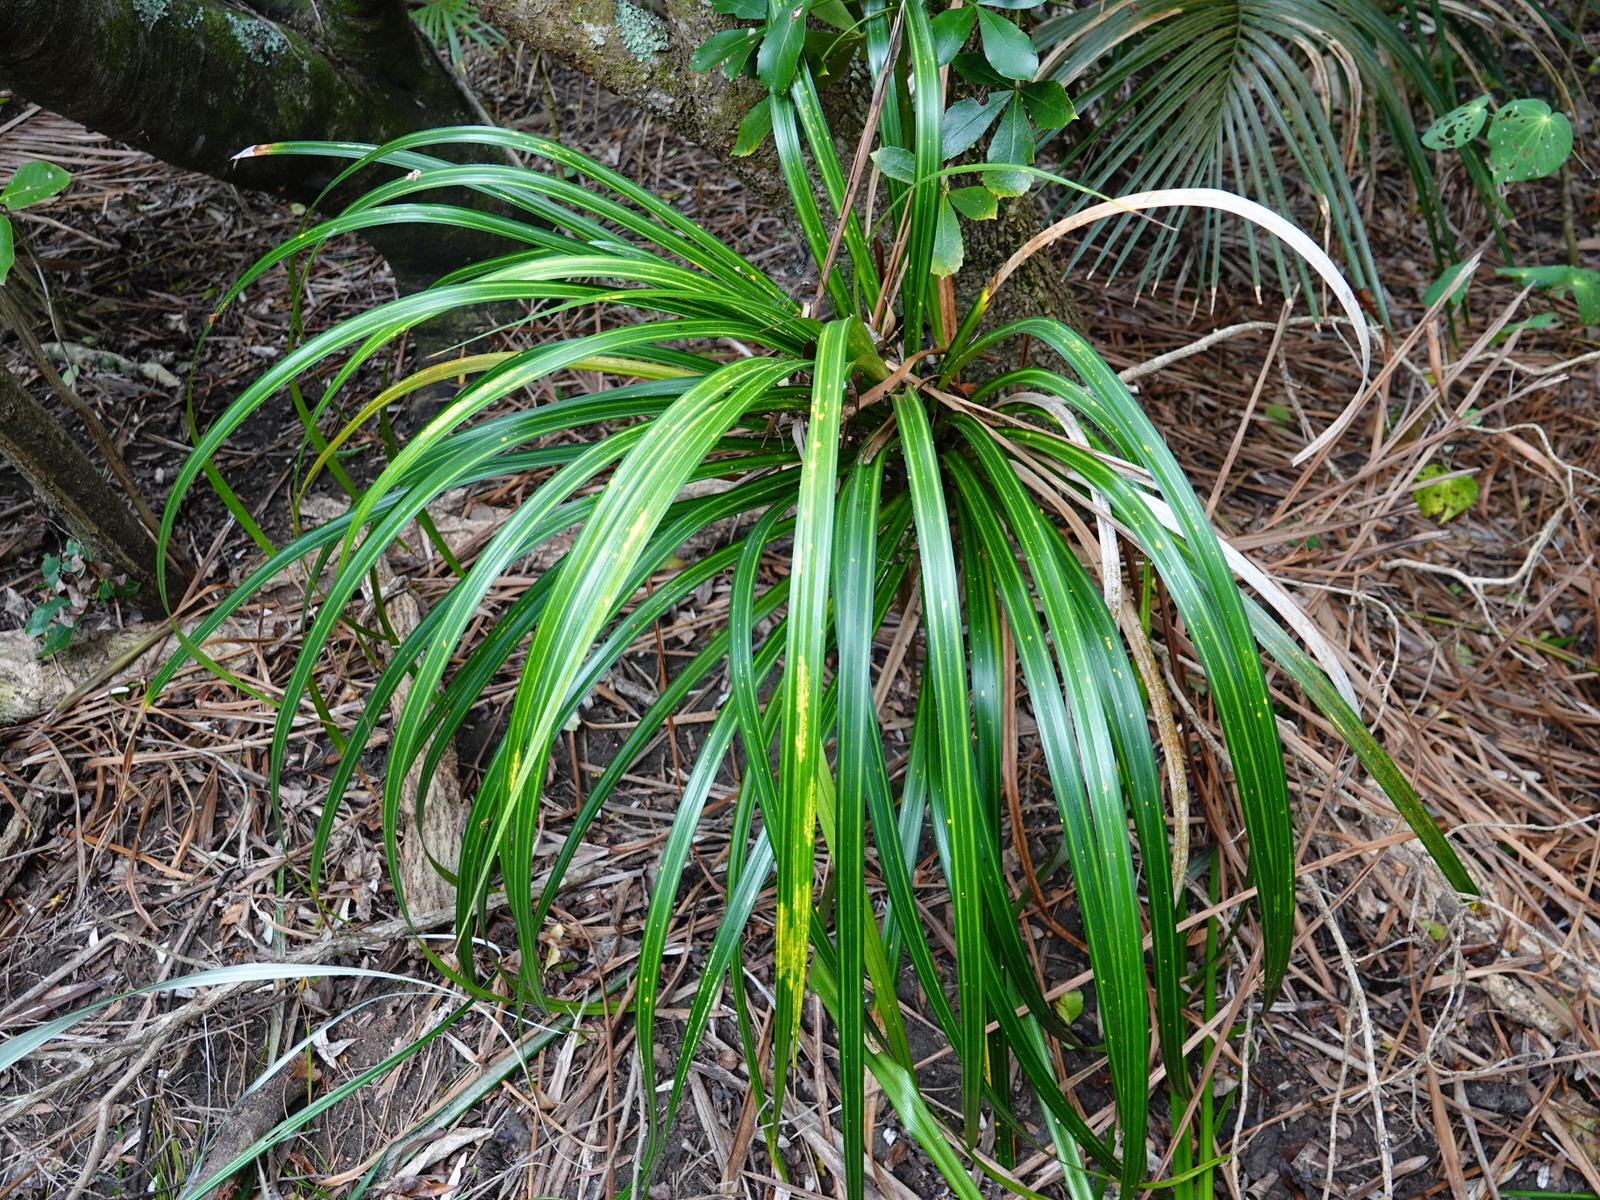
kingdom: Plantae
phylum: Tracheophyta
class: Liliopsida
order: Pandanales
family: Pandanaceae
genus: Freycinetia
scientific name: Freycinetia banksii
